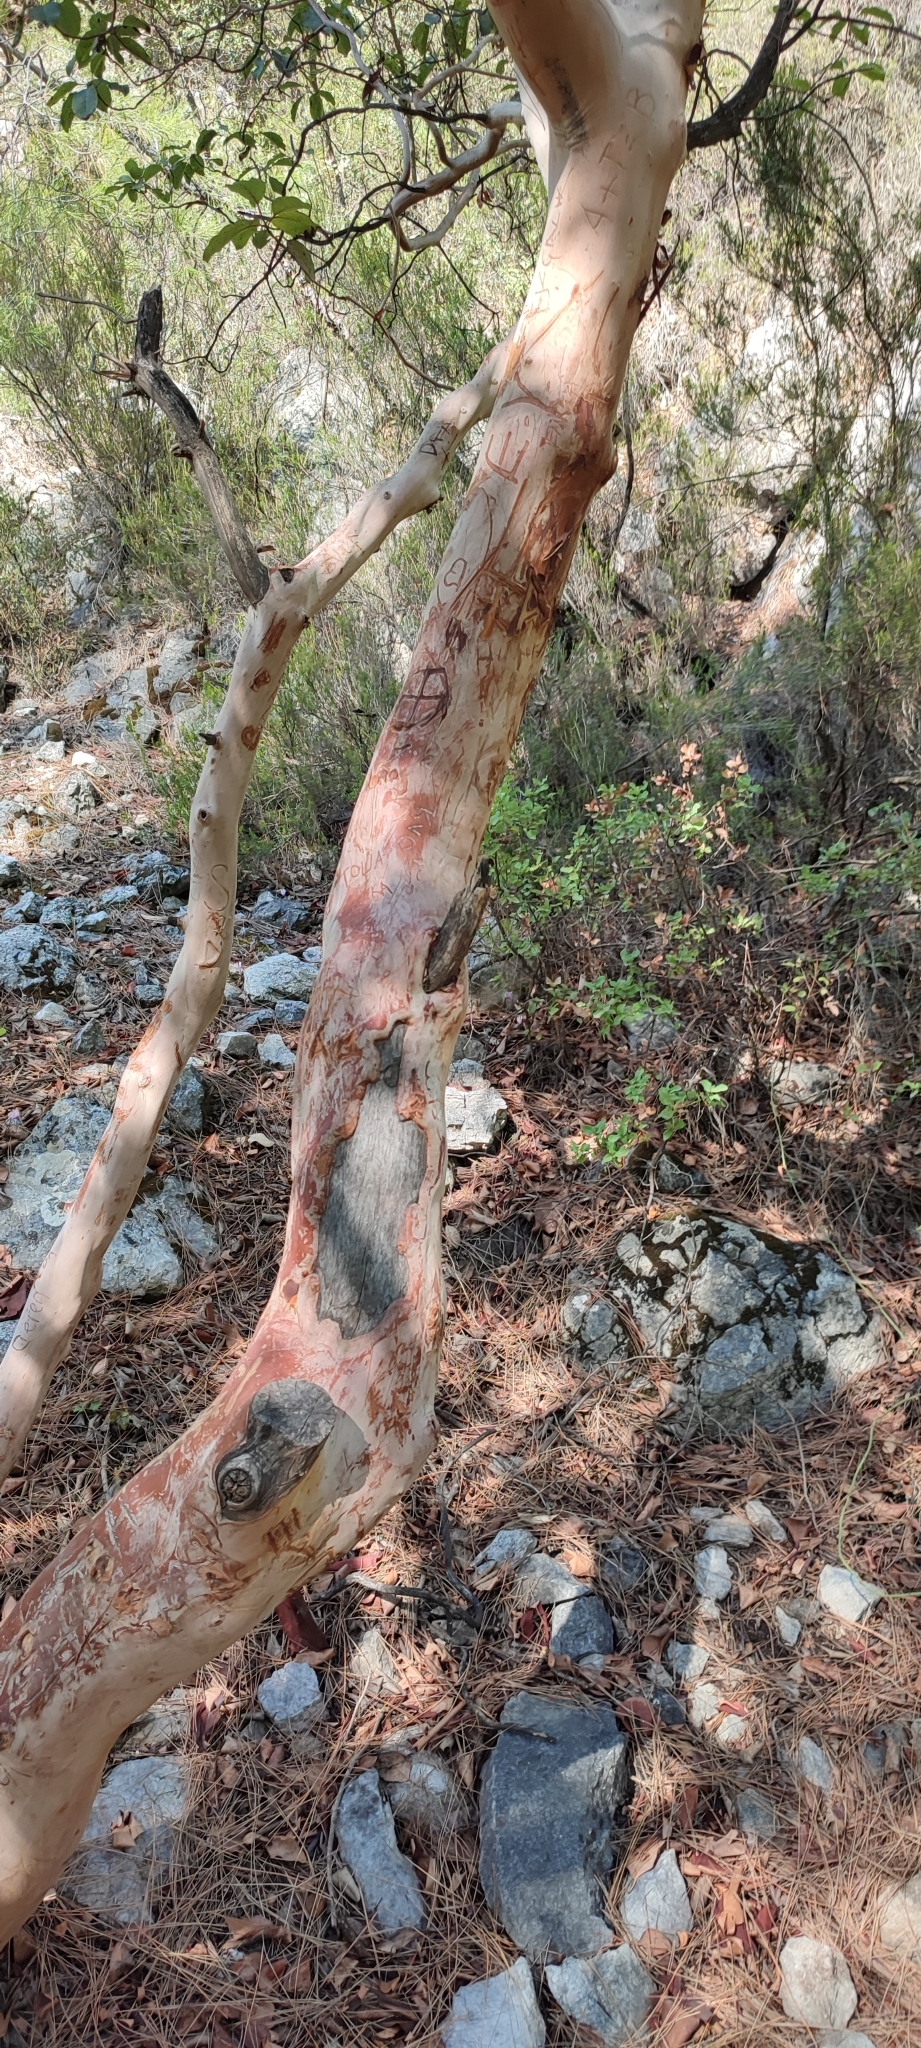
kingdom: Plantae
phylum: Tracheophyta
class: Magnoliopsida
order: Ericales
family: Ericaceae
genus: Arbutus
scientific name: Arbutus andrachne
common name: Greek strawberry tree
